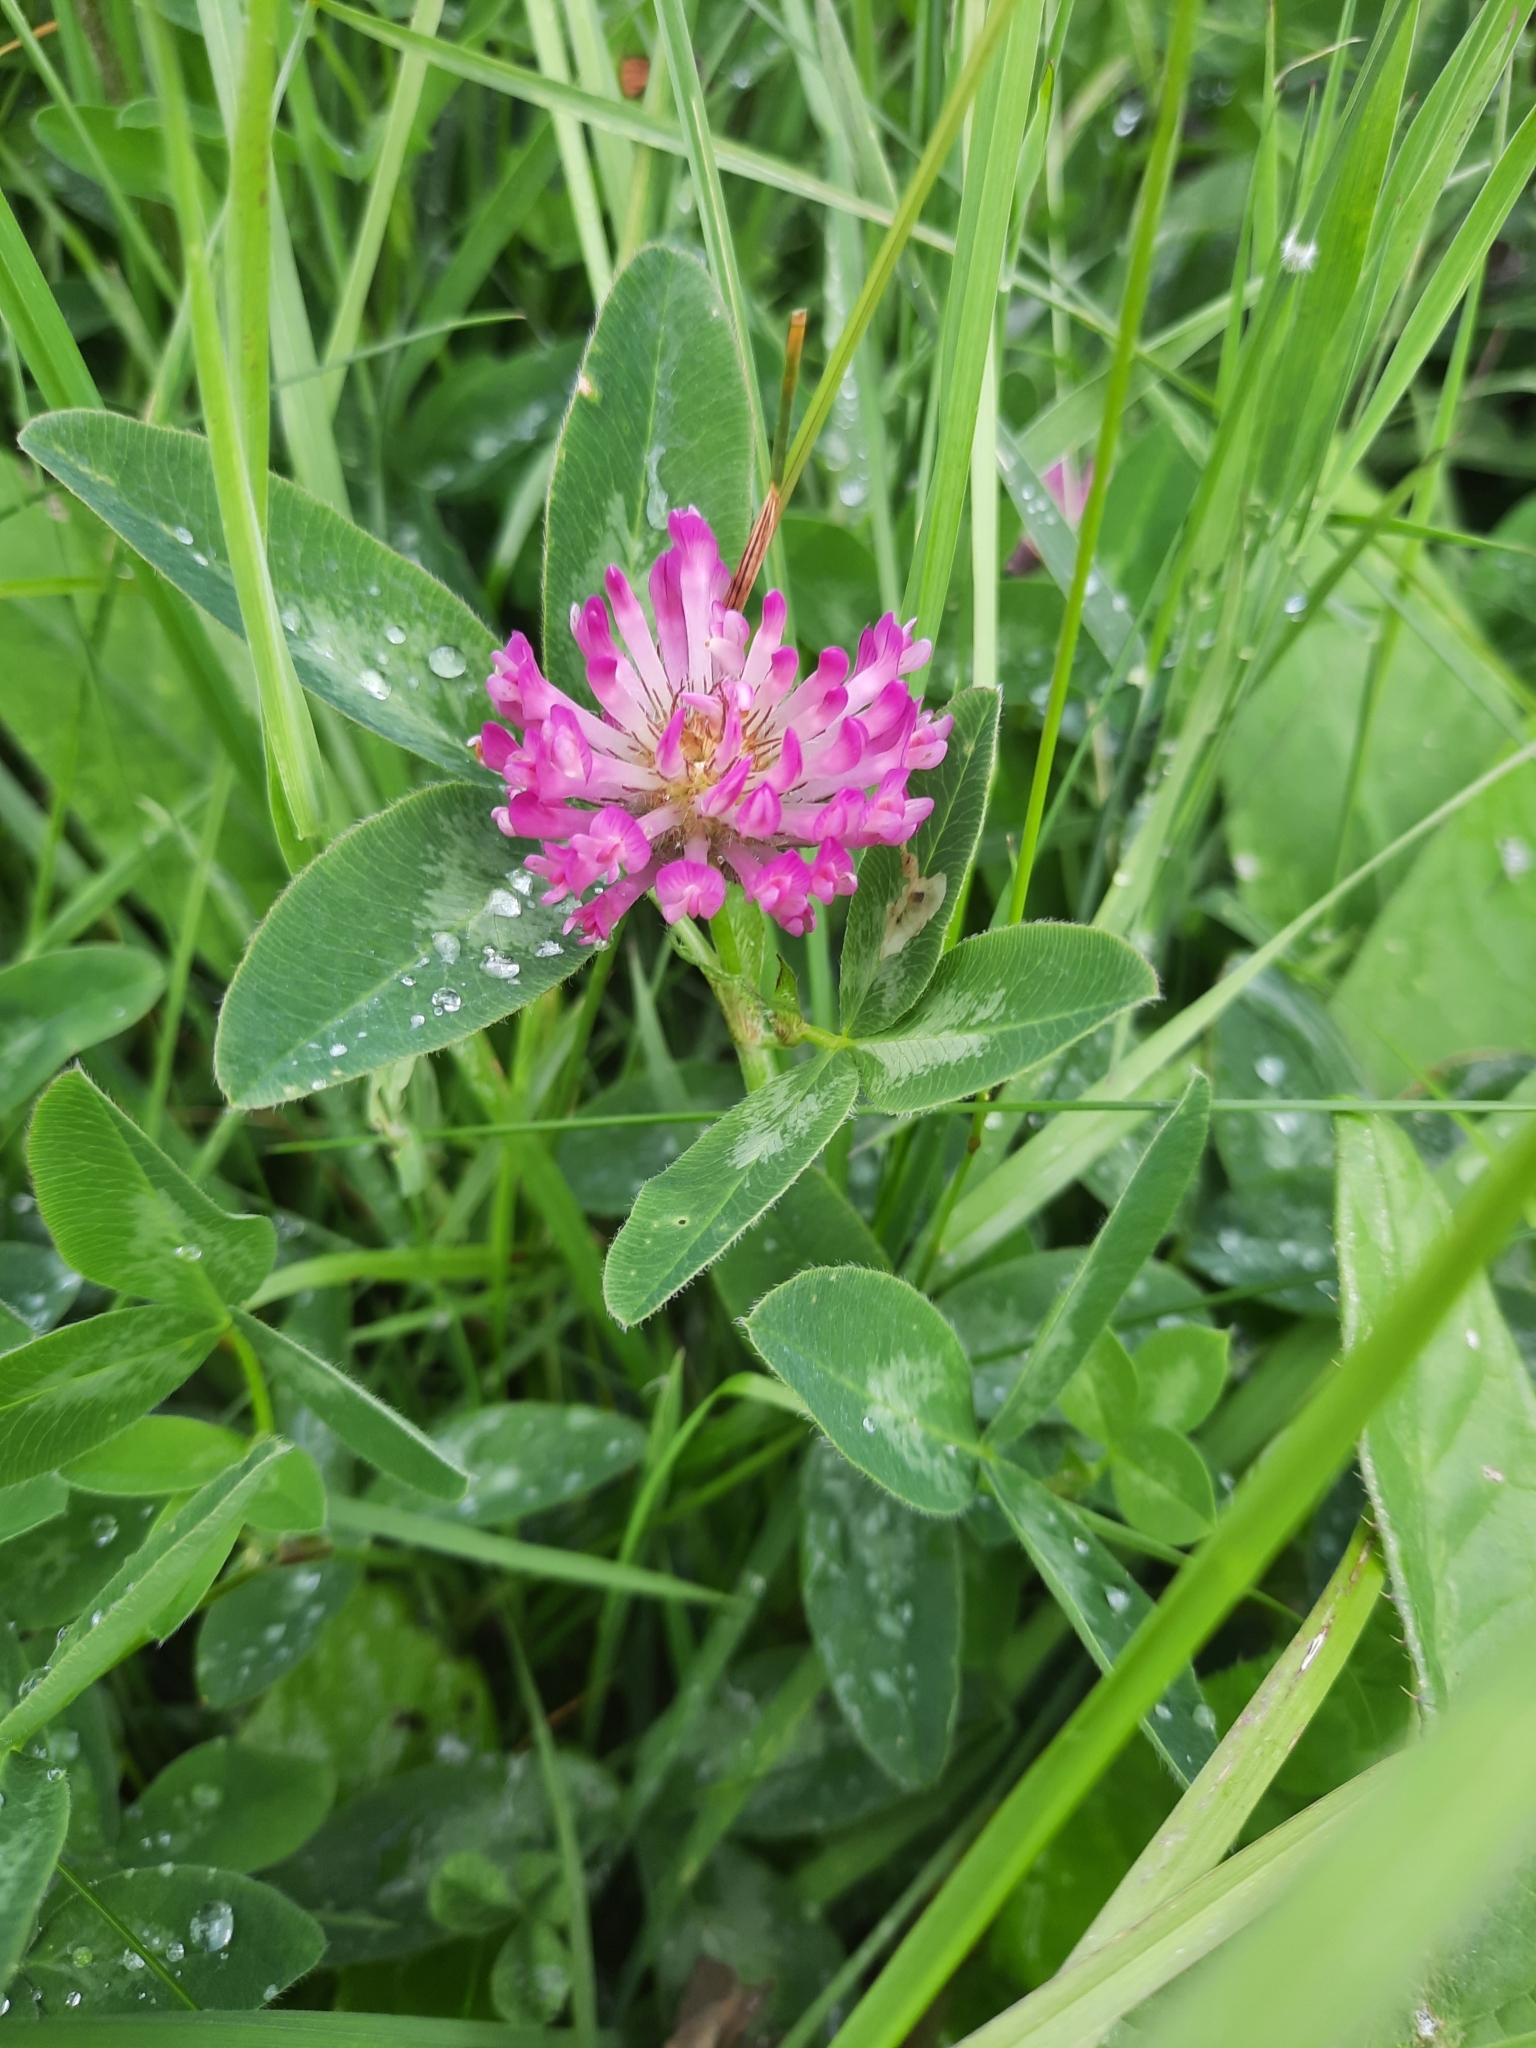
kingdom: Plantae
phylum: Tracheophyta
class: Magnoliopsida
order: Fabales
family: Fabaceae
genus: Trifolium
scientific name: Trifolium medium
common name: Zigzag clover
